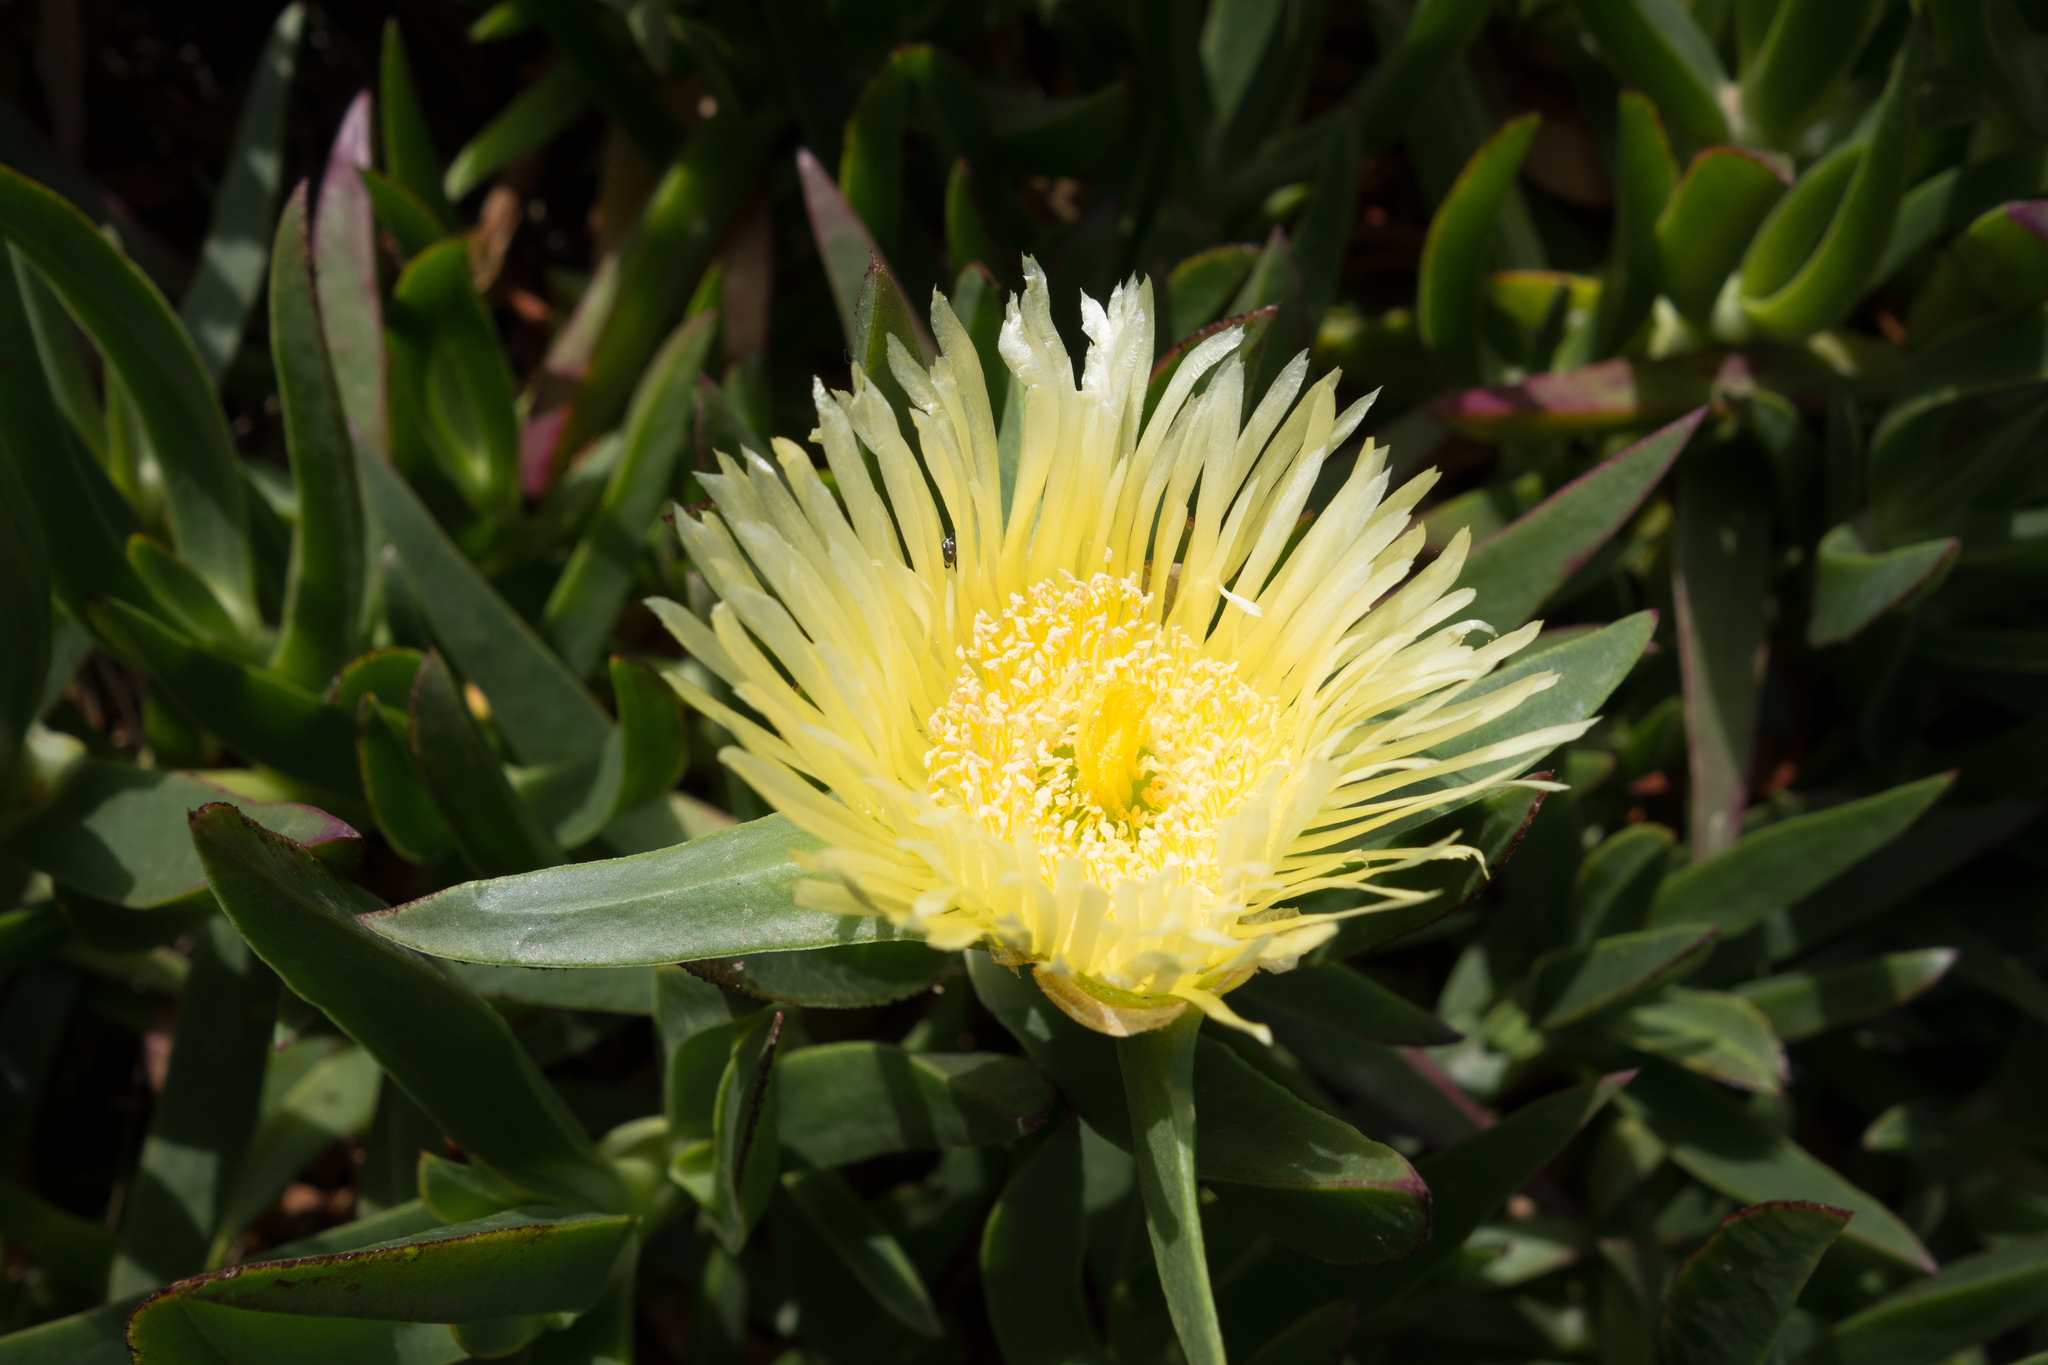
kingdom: Plantae
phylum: Tracheophyta
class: Magnoliopsida
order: Caryophyllales
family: Aizoaceae
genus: Carpobrotus
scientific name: Carpobrotus edulis
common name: Hottentot-fig
